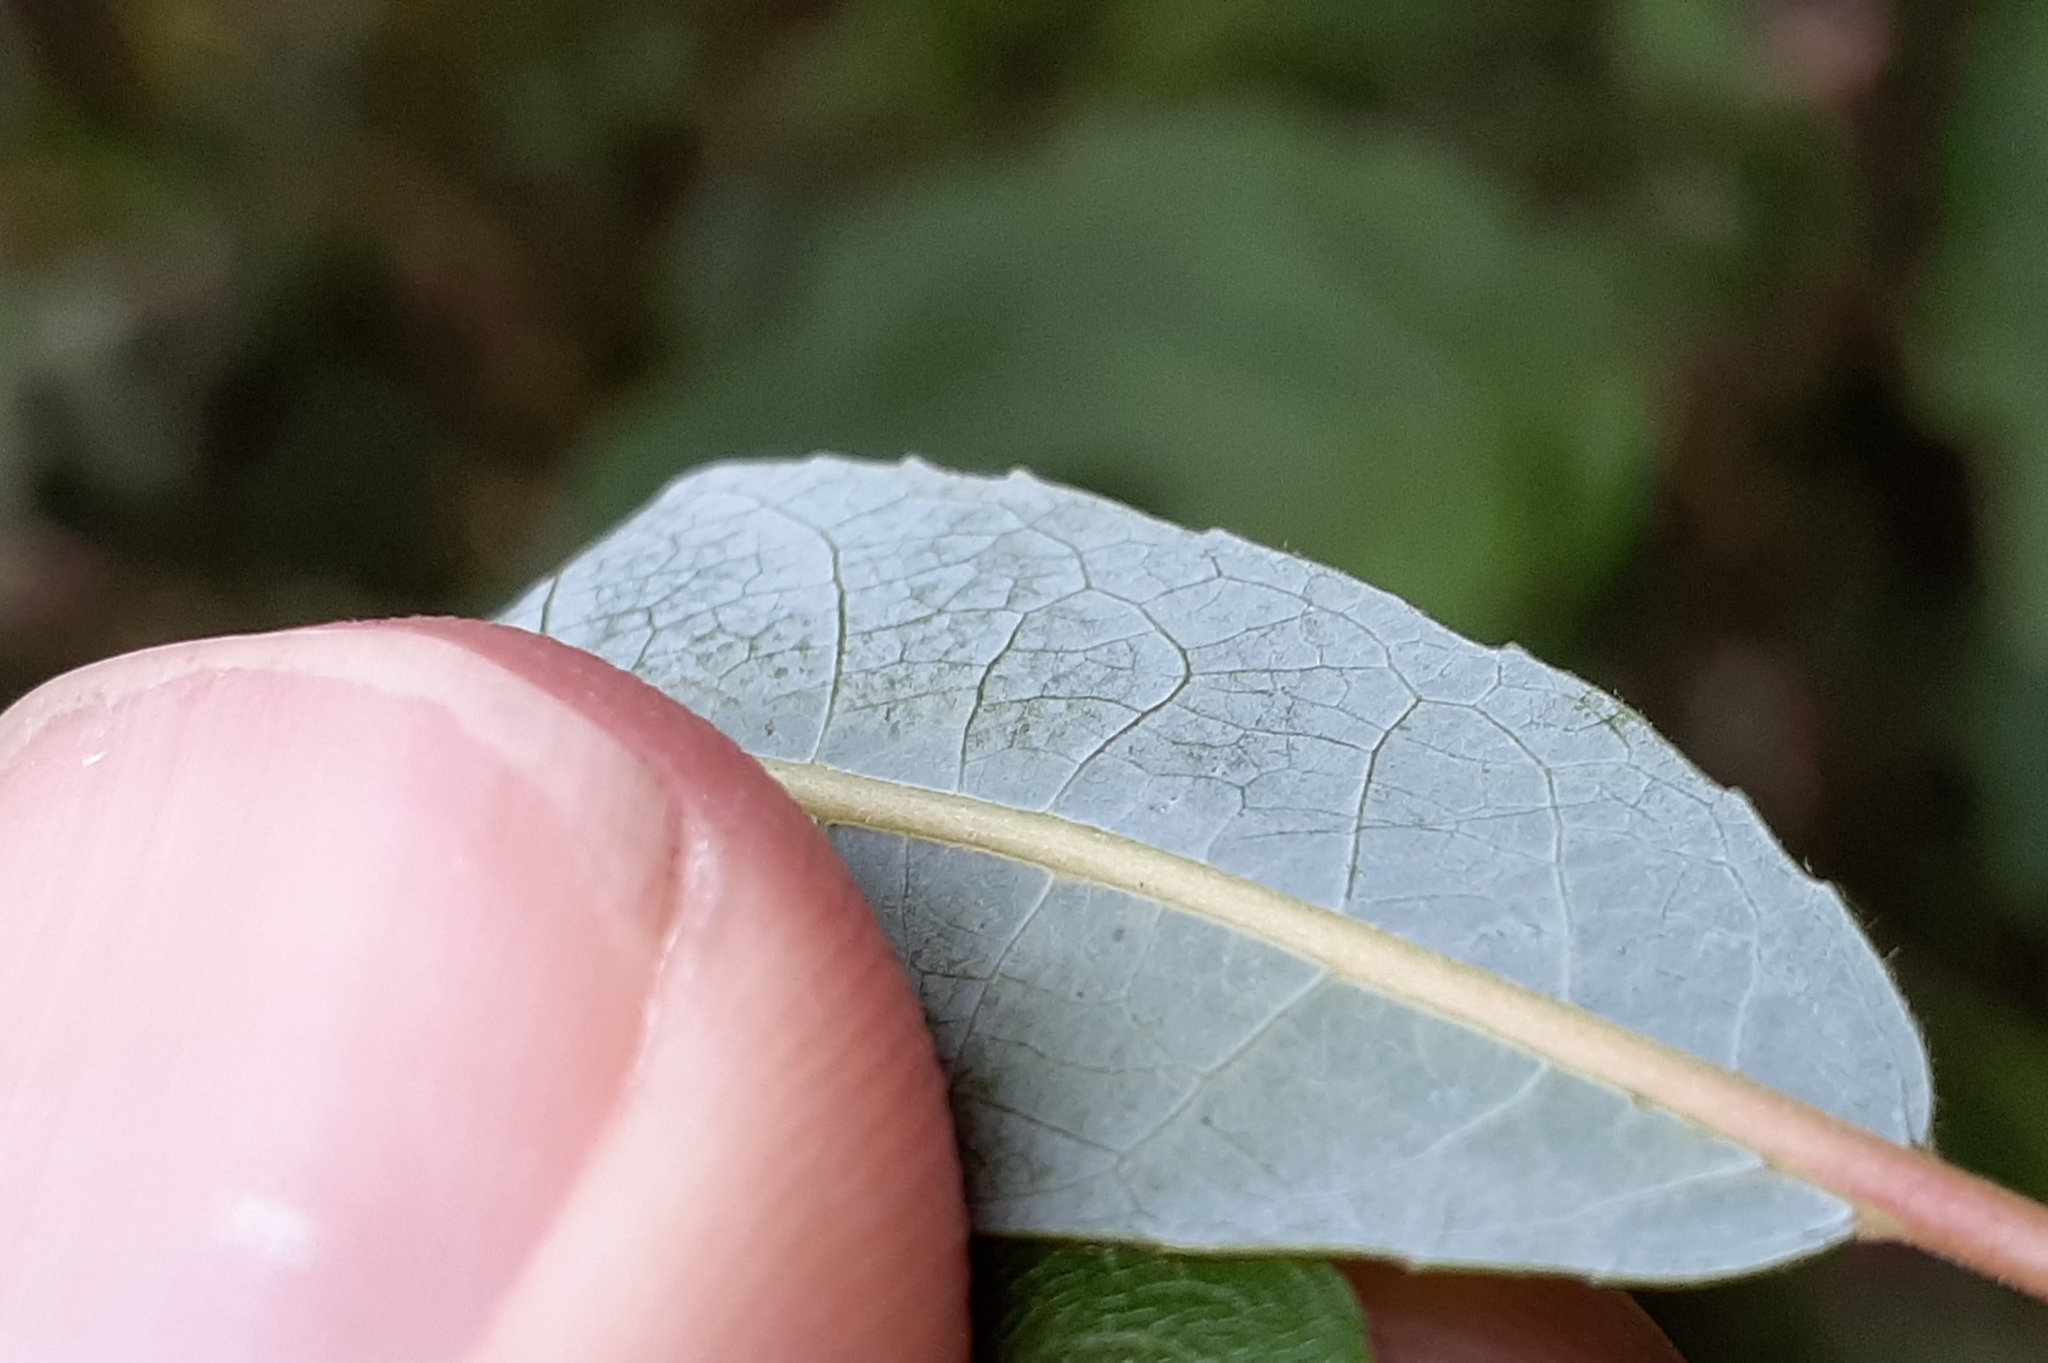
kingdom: Plantae
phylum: Tracheophyta
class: Magnoliopsida
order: Malpighiales
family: Salicaceae
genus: Salix
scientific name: Salix petiolaris
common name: Slender willow
